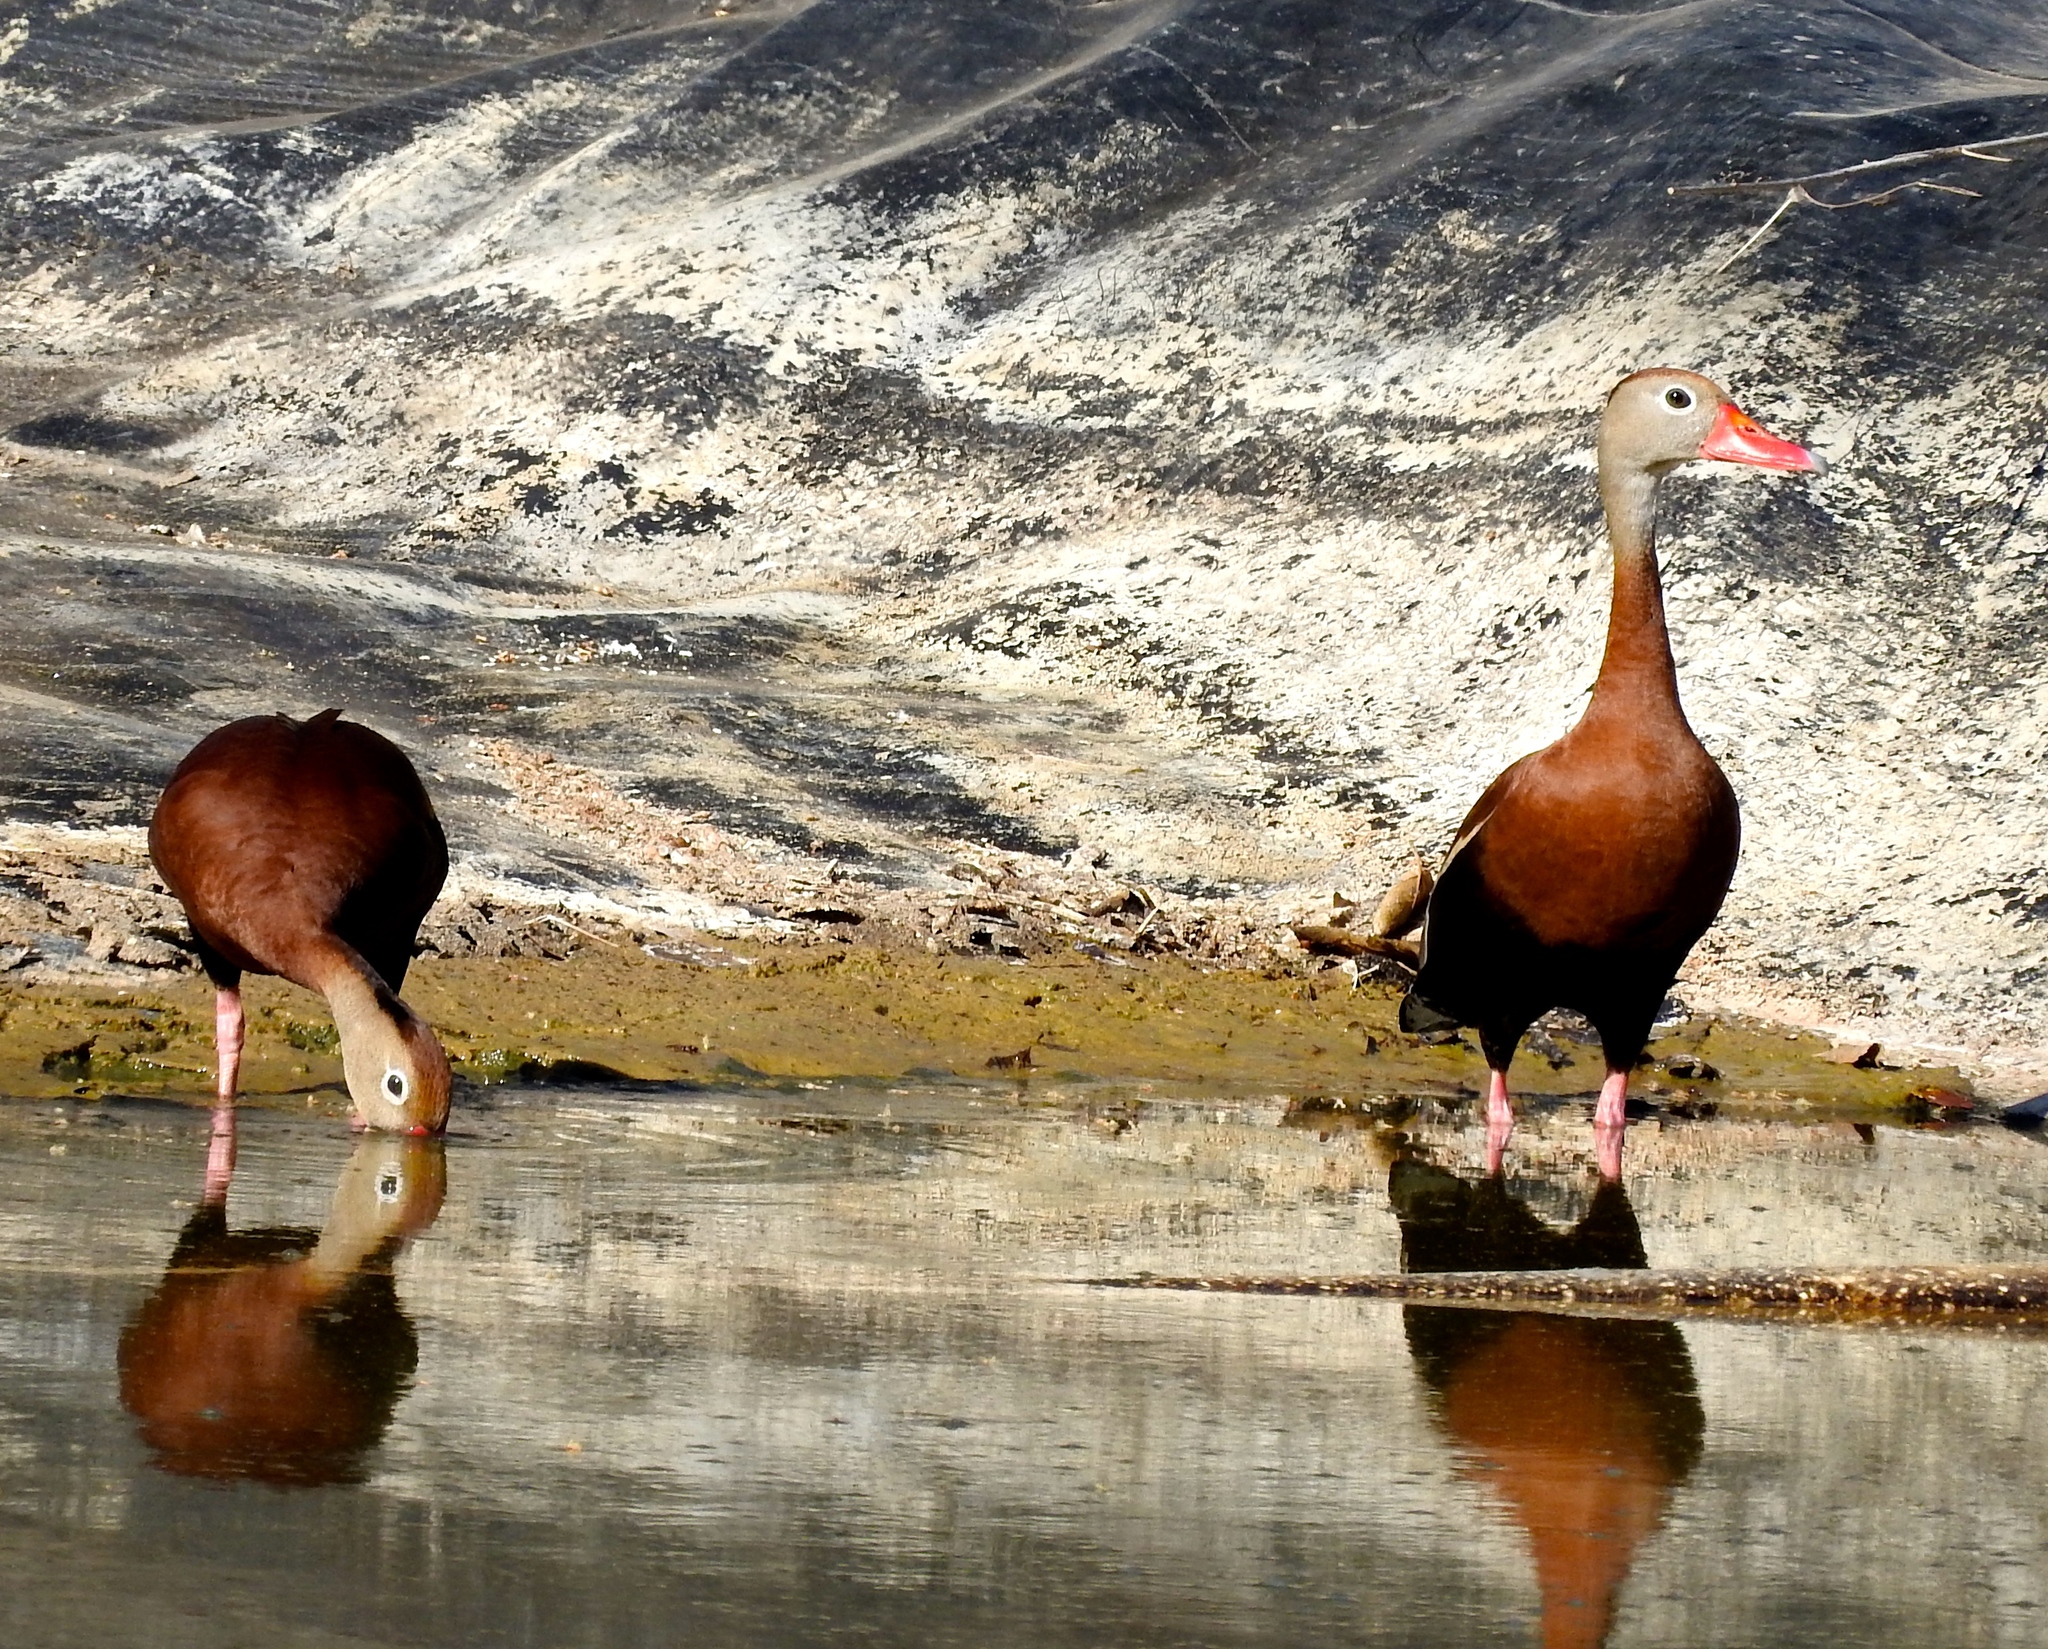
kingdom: Animalia
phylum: Chordata
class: Aves
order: Anseriformes
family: Anatidae
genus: Dendrocygna
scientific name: Dendrocygna autumnalis
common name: Black-bellied whistling duck
